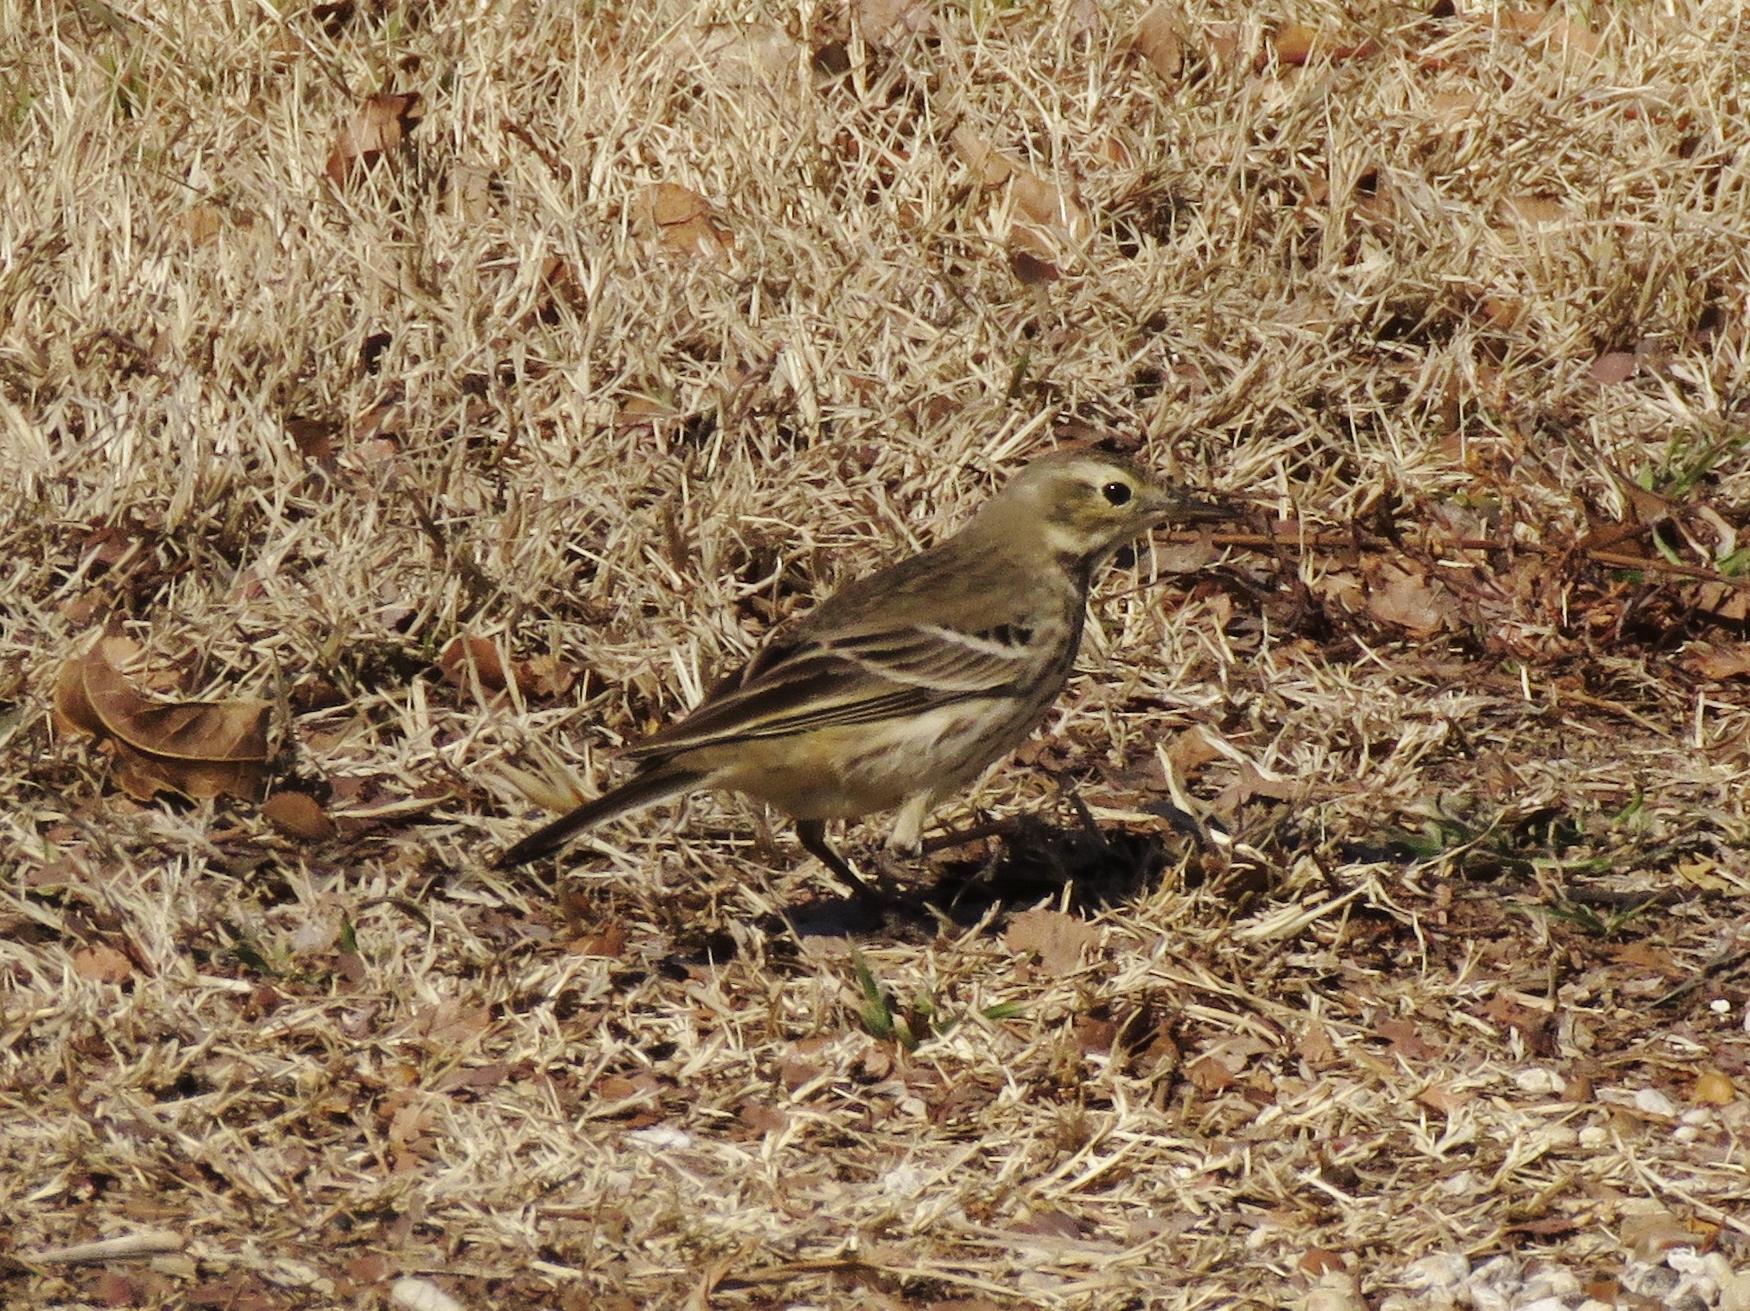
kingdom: Animalia
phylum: Chordata
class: Aves
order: Passeriformes
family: Motacillidae
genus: Anthus
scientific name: Anthus rubescens
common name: Buff-bellied pipit
